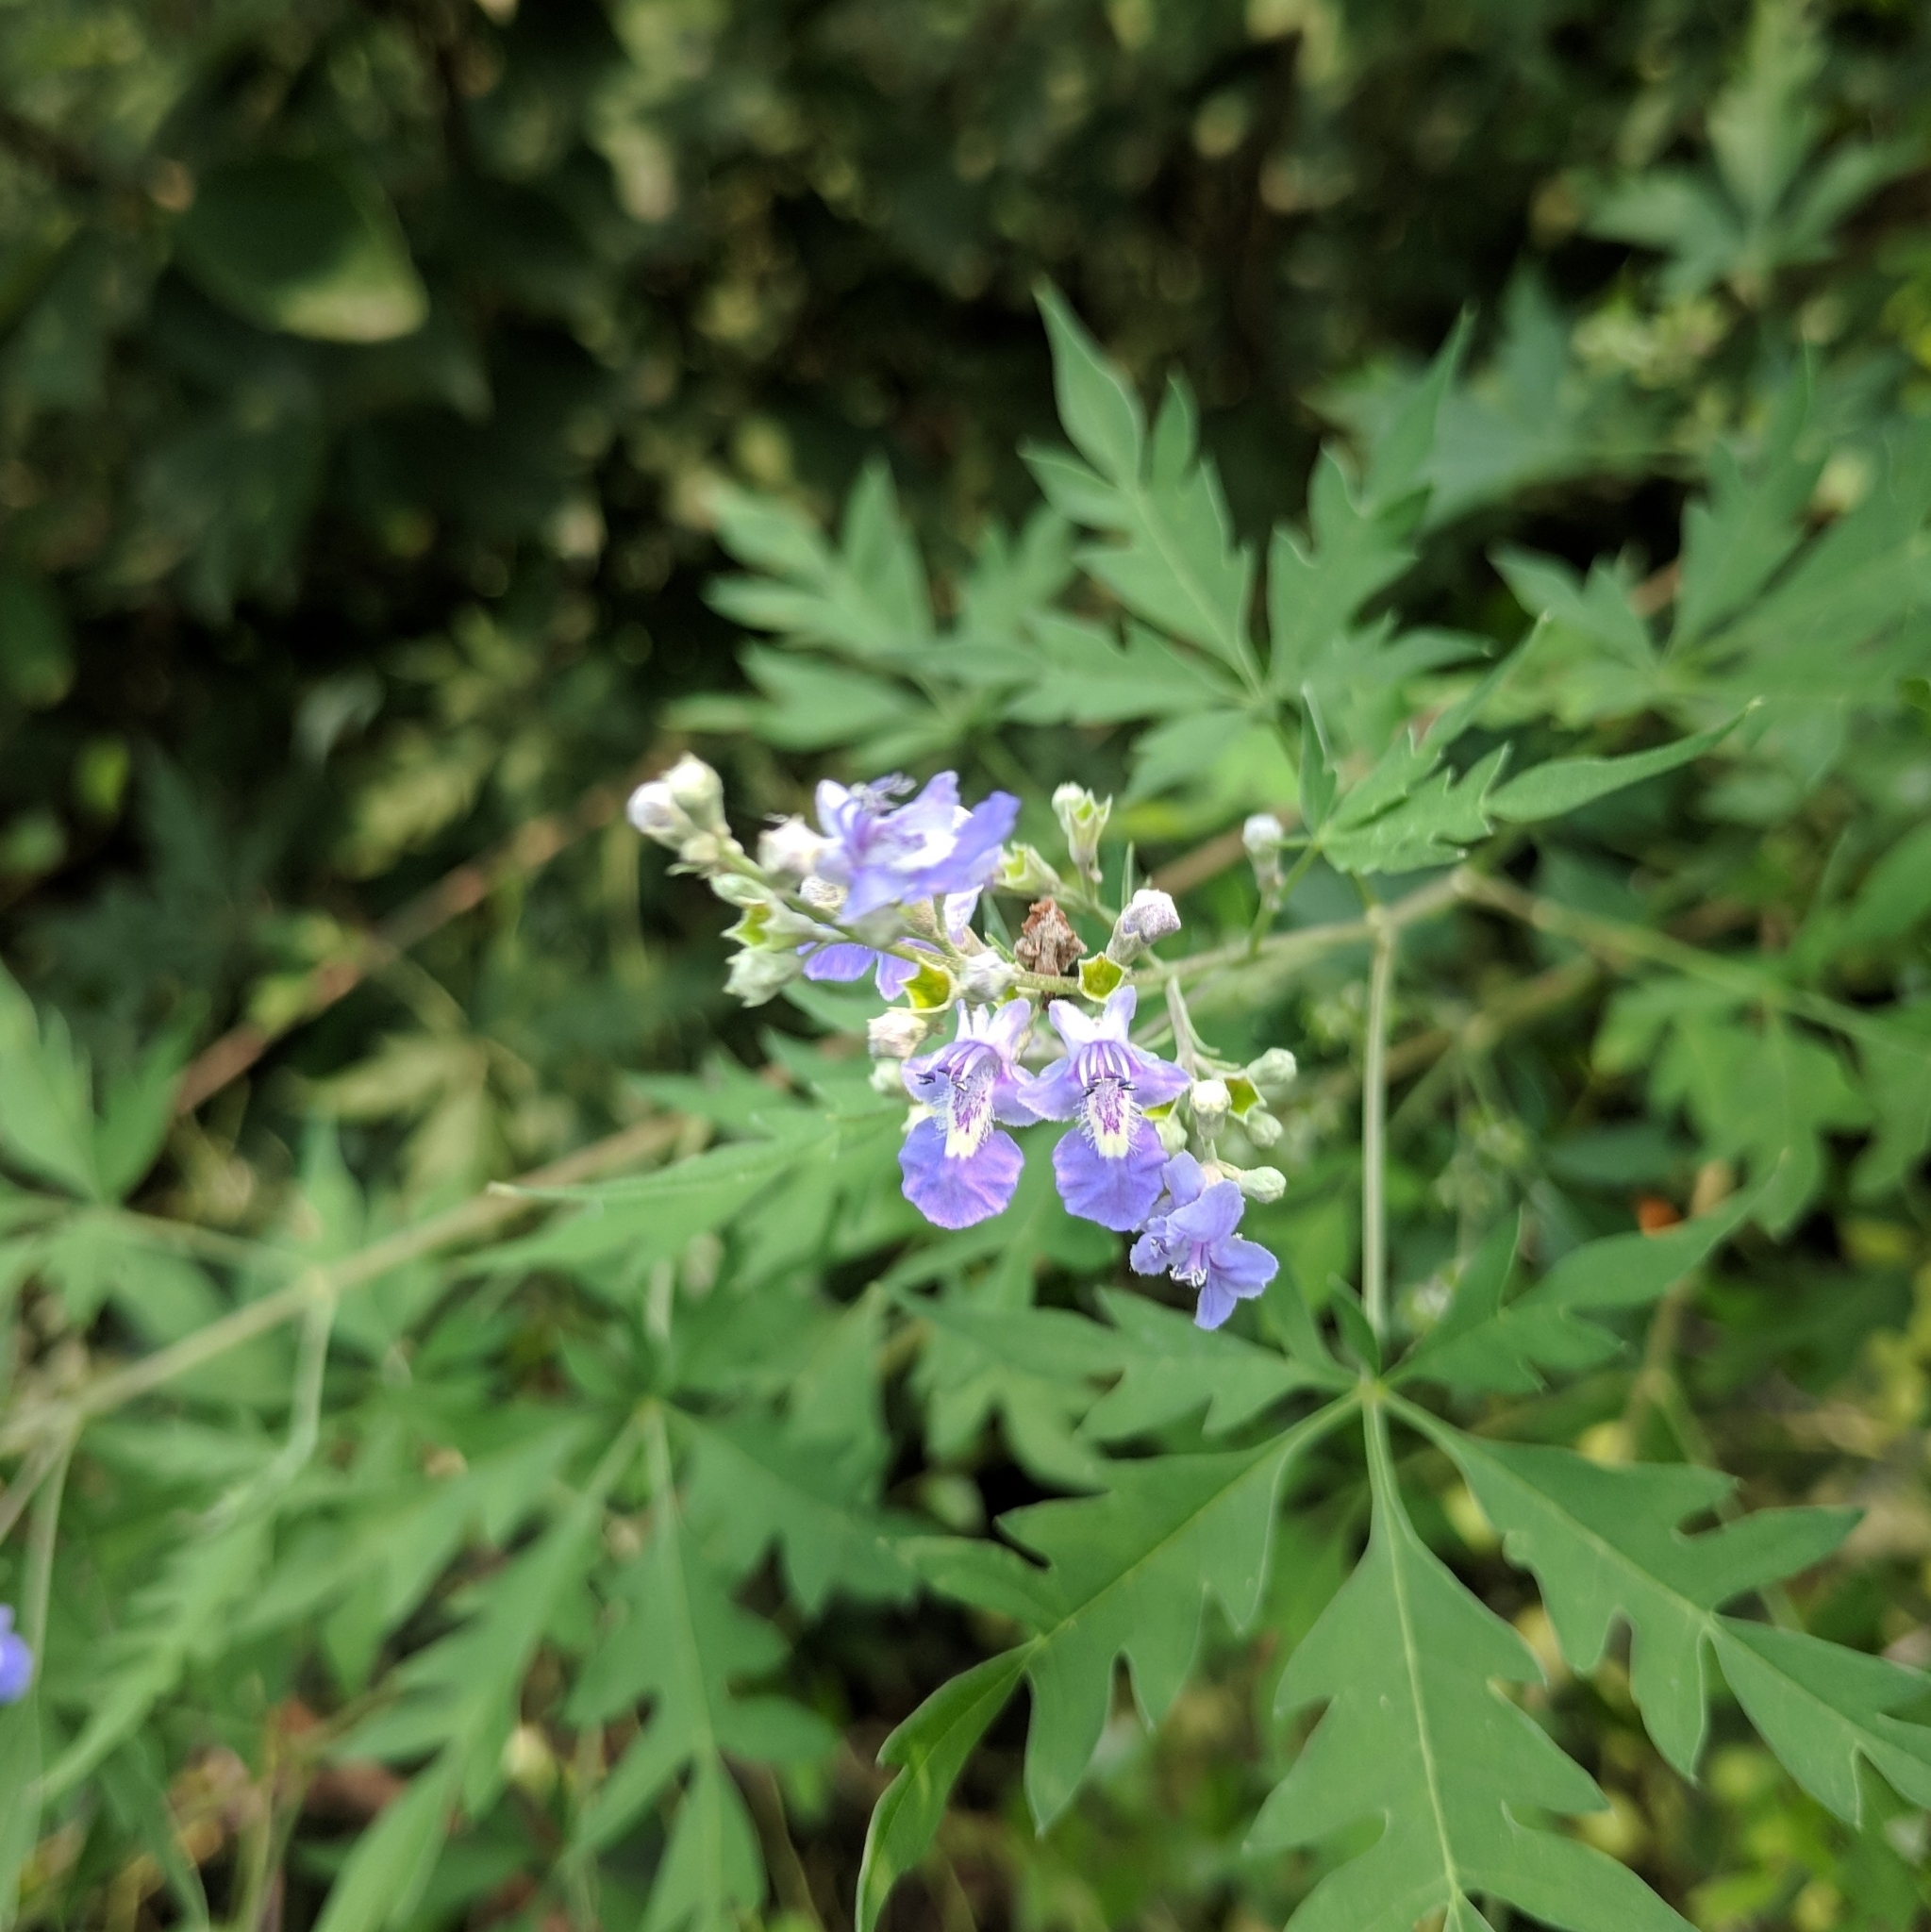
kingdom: Plantae
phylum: Tracheophyta
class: Magnoliopsida
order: Lamiales
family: Lamiaceae
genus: Vitex
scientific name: Vitex negundo
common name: Chinese chastetree
